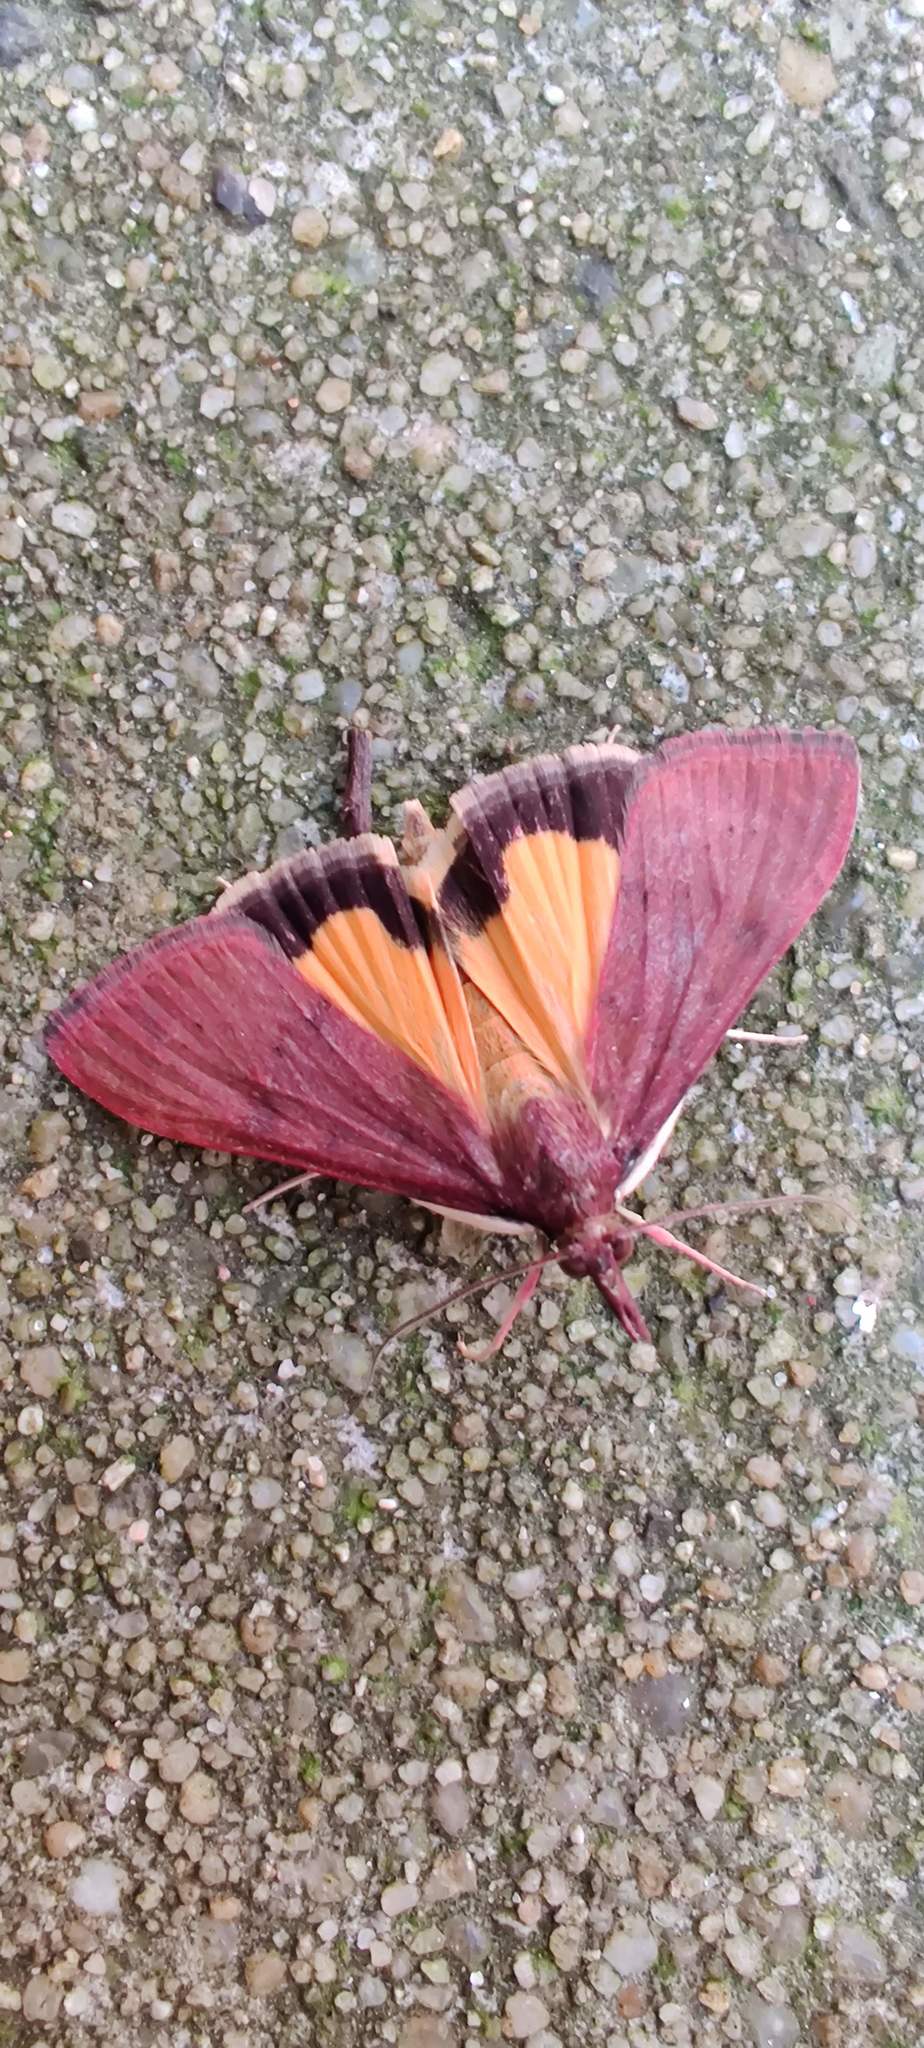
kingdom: Animalia
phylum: Arthropoda
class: Insecta
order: Lepidoptera
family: Crambidae
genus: Uresiphita
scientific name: Uresiphita ornithopteralis
